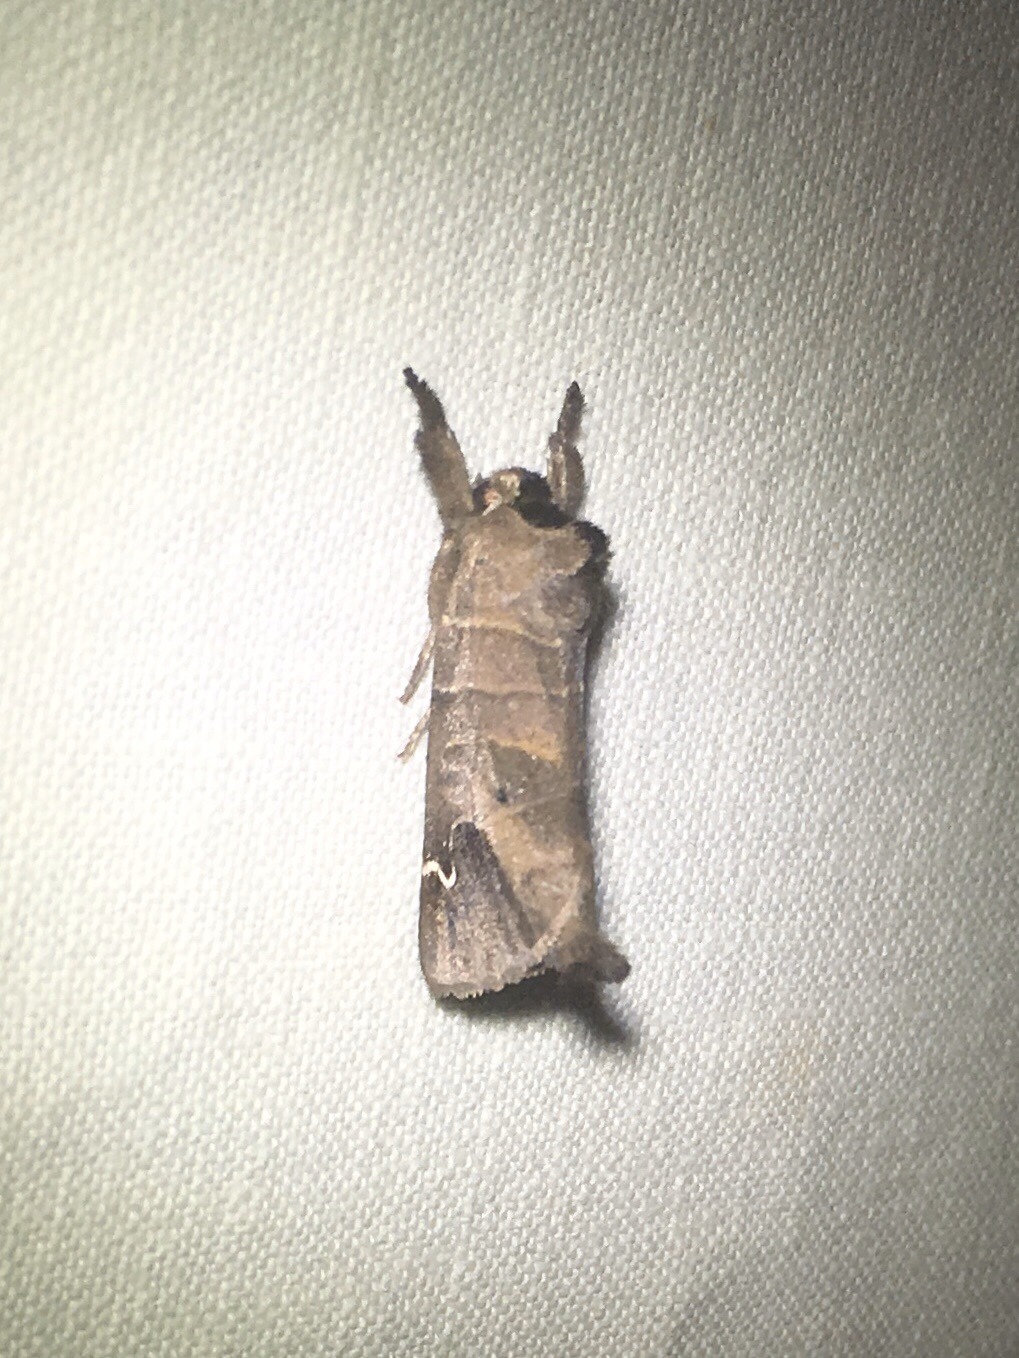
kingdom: Animalia
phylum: Arthropoda
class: Insecta
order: Lepidoptera
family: Notodontidae
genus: Clostera
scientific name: Clostera albosigma
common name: Sigmoid prominent
